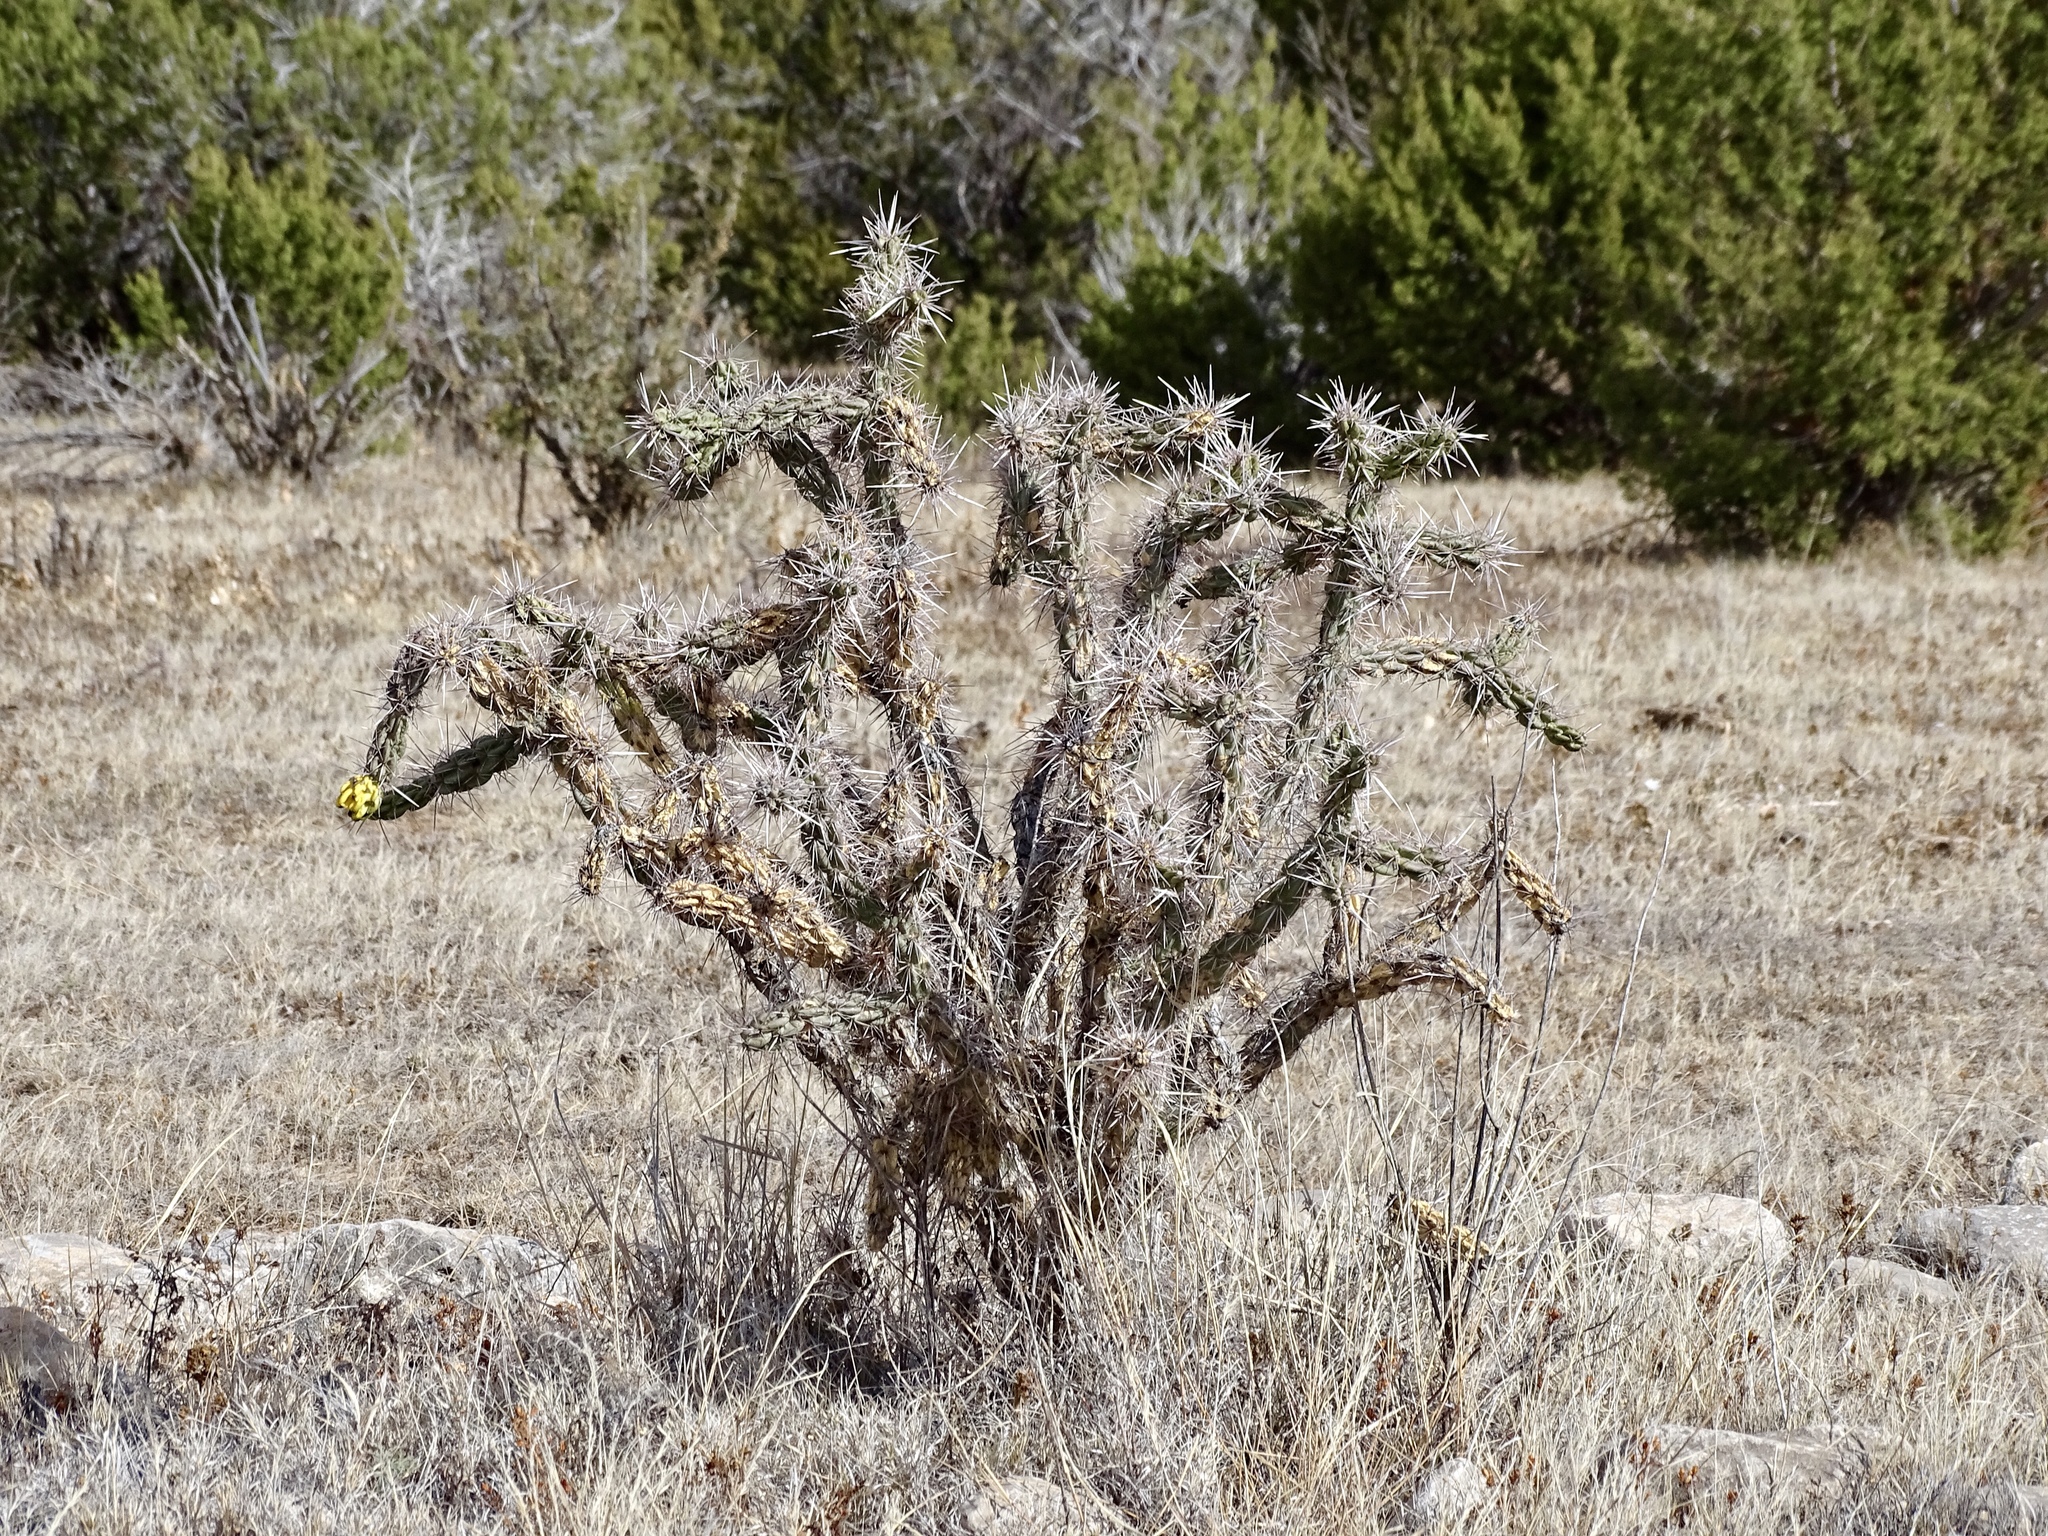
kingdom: Plantae
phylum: Tracheophyta
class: Magnoliopsida
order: Caryophyllales
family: Cactaceae
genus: Cylindropuntia
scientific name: Cylindropuntia imbricata
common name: Candelabrum cactus
